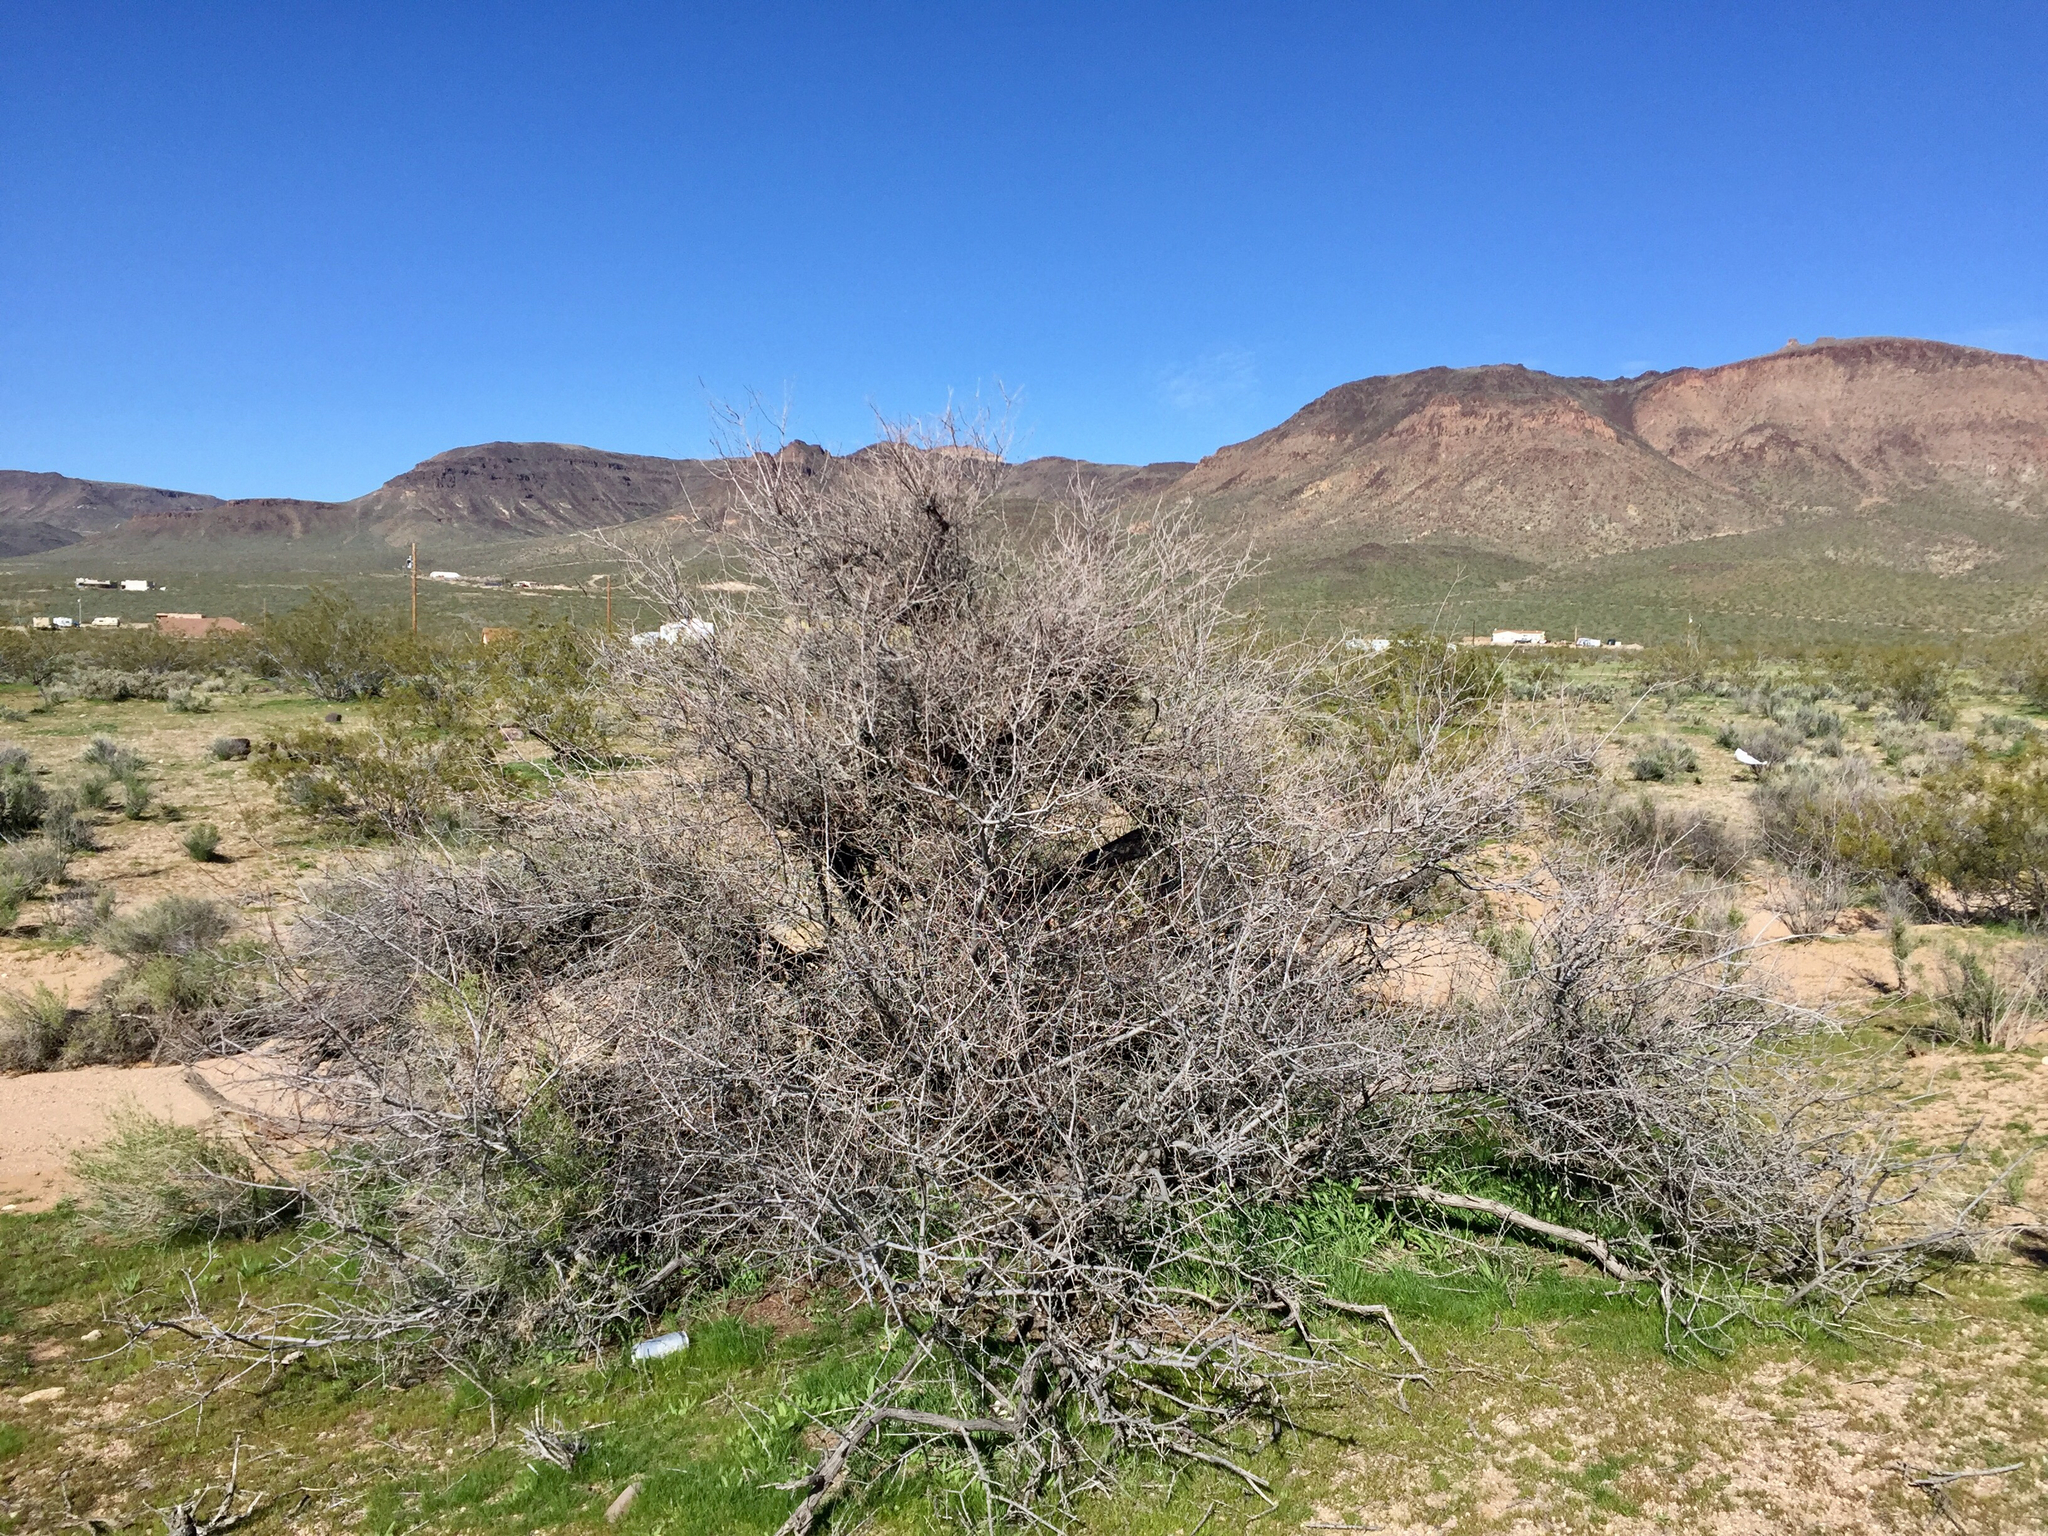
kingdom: Plantae
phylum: Tracheophyta
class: Magnoliopsida
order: Fabales
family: Fabaceae
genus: Senegalia
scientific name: Senegalia greggii
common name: Texas-mimosa
